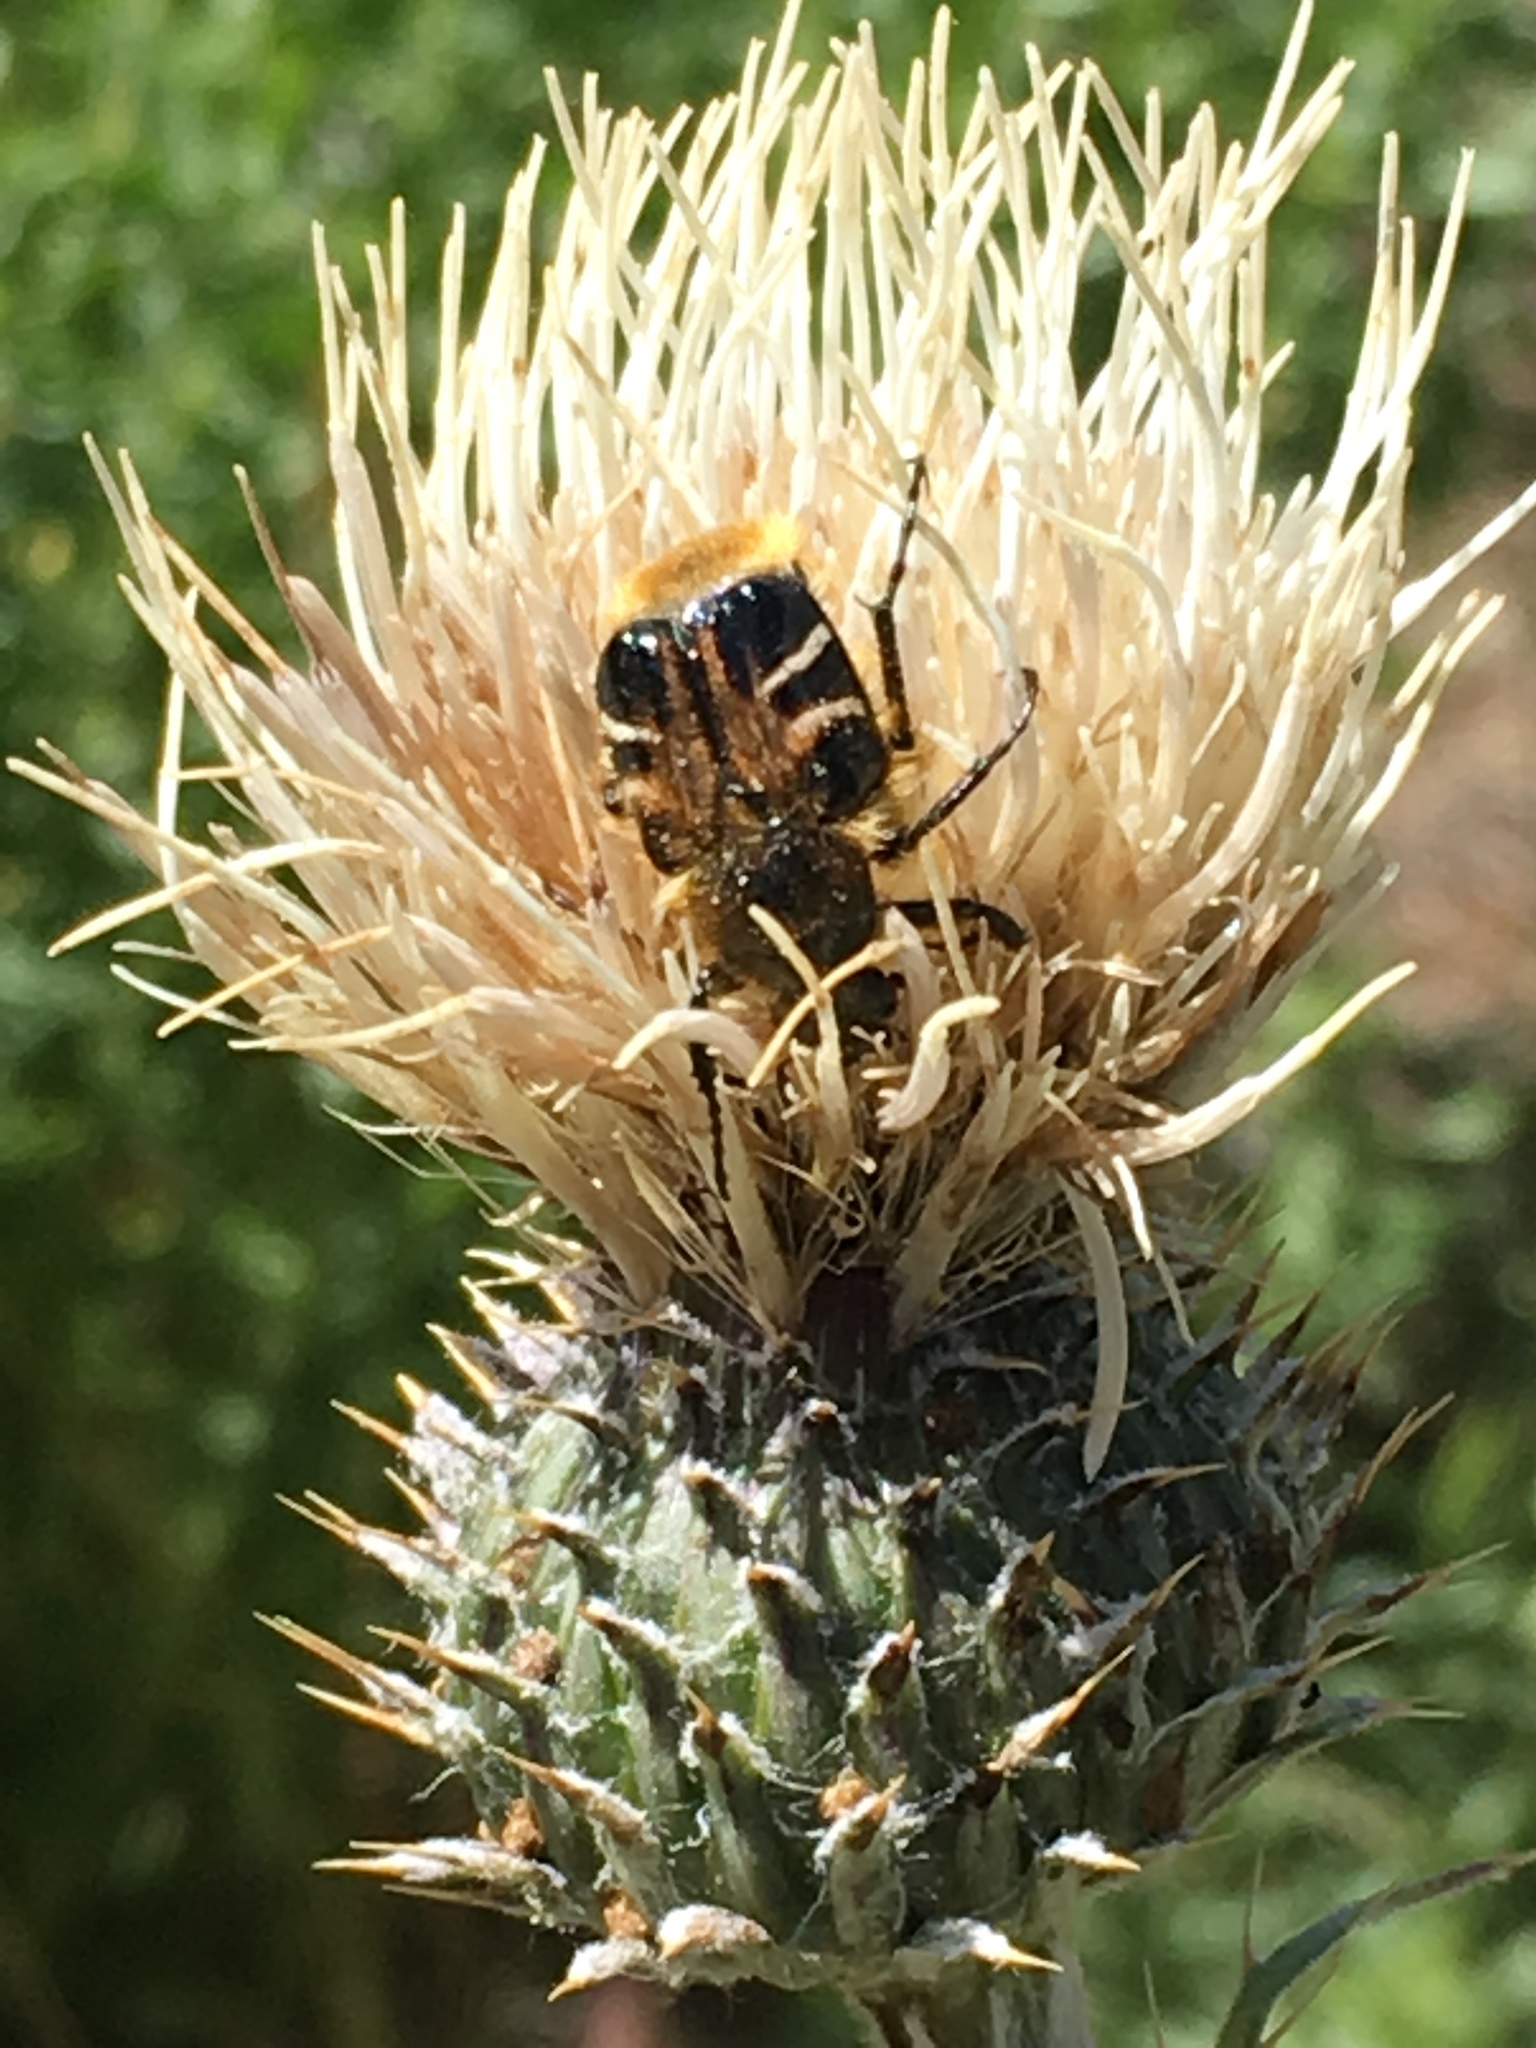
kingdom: Animalia
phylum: Arthropoda
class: Insecta
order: Coleoptera
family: Scarabaeidae
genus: Trichiotinus
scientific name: Trichiotinus assimilis
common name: Bee-mimic beetle
